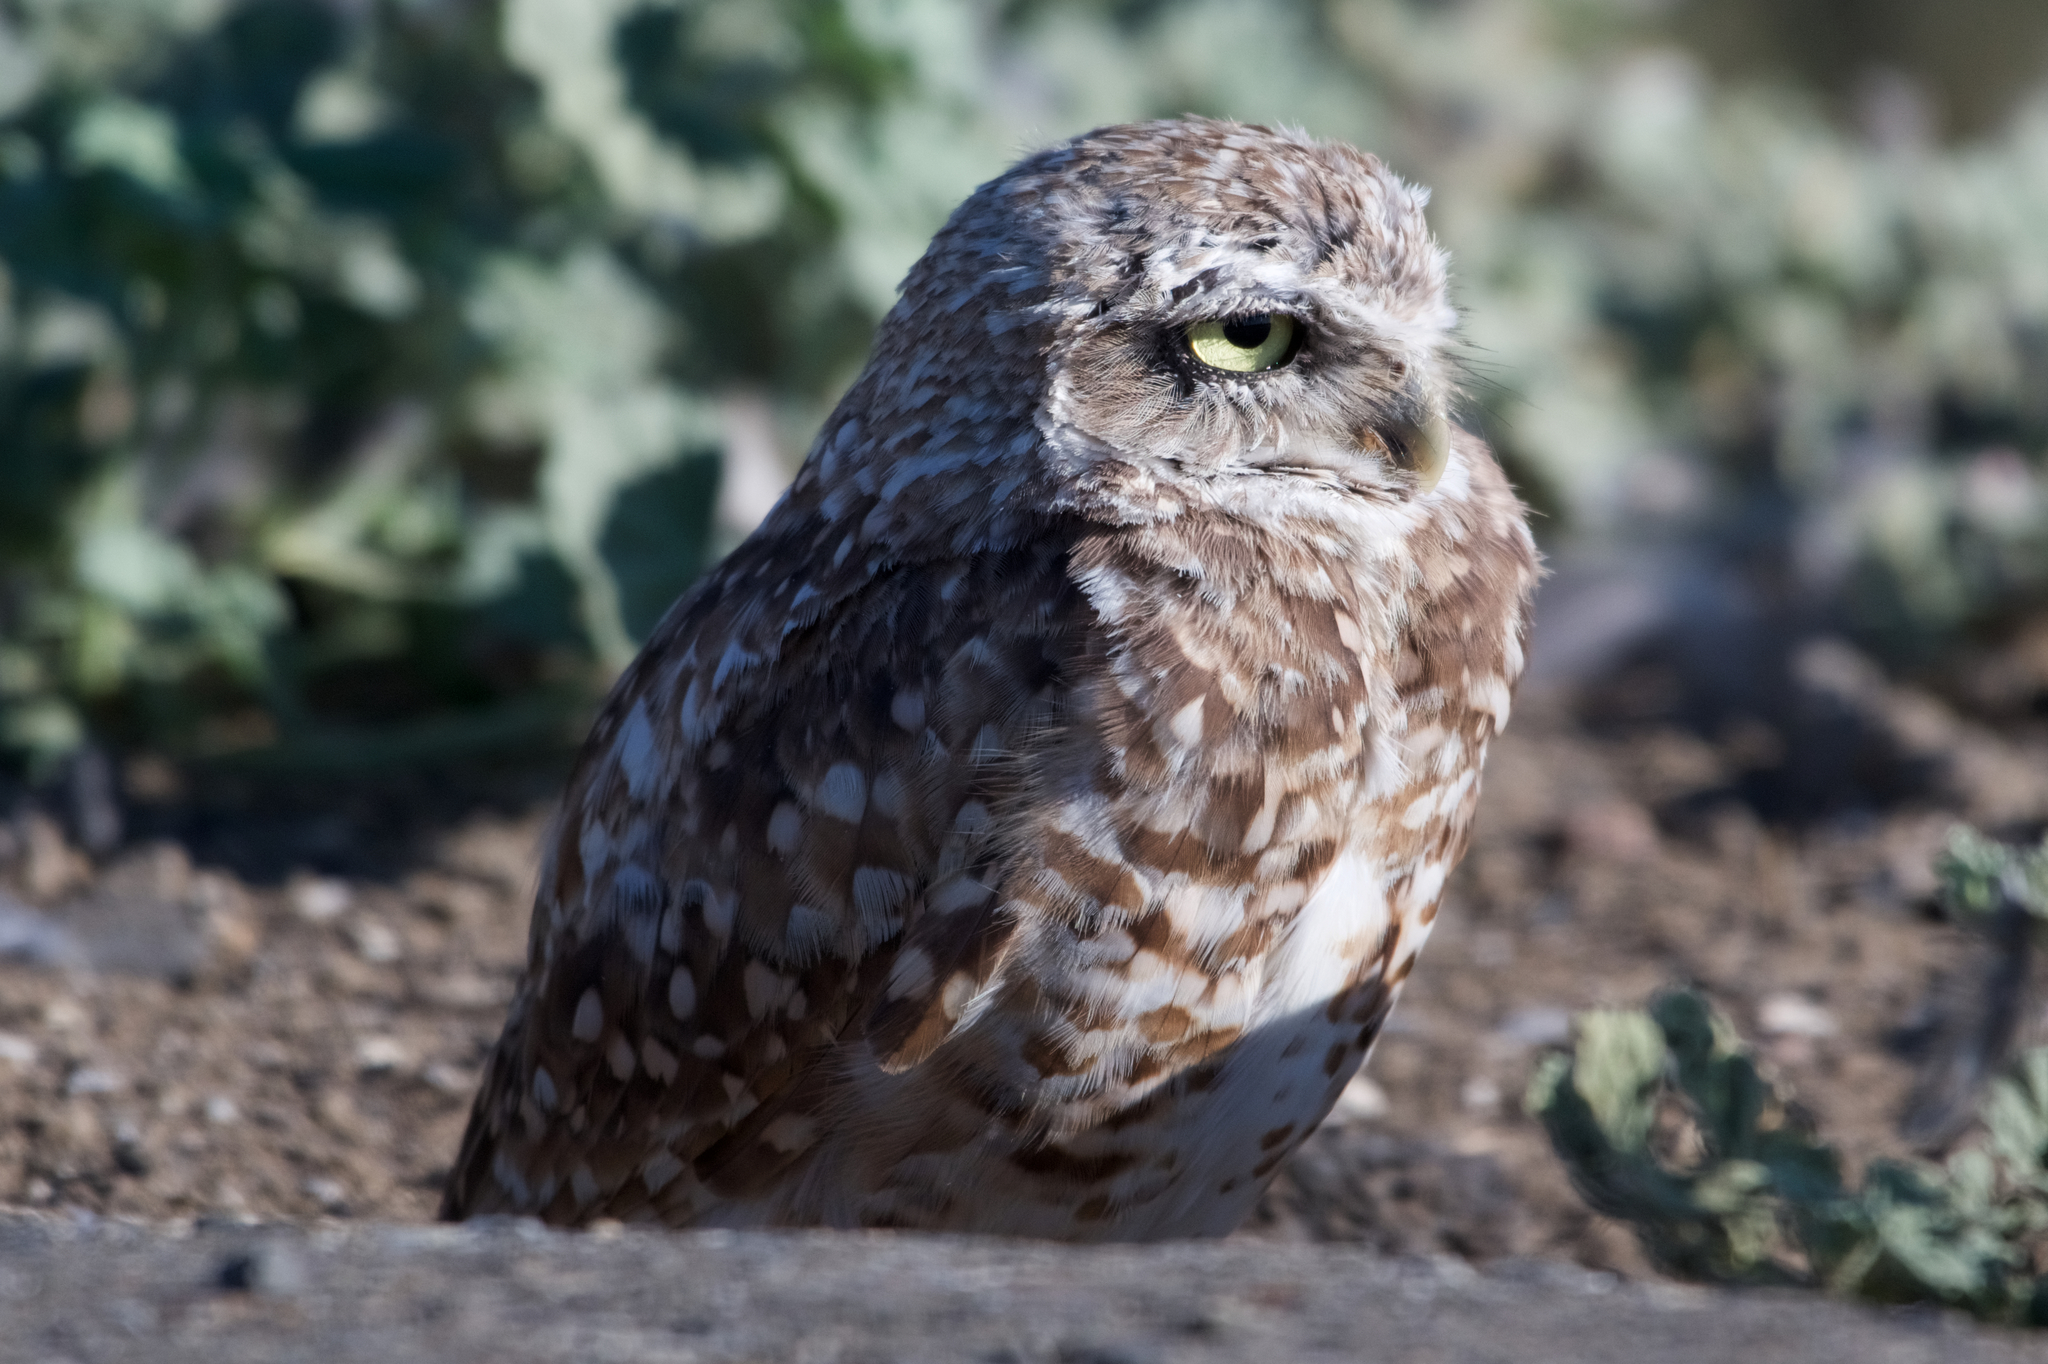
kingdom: Animalia
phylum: Chordata
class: Aves
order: Strigiformes
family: Strigidae
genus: Athene
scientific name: Athene cunicularia
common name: Burrowing owl
